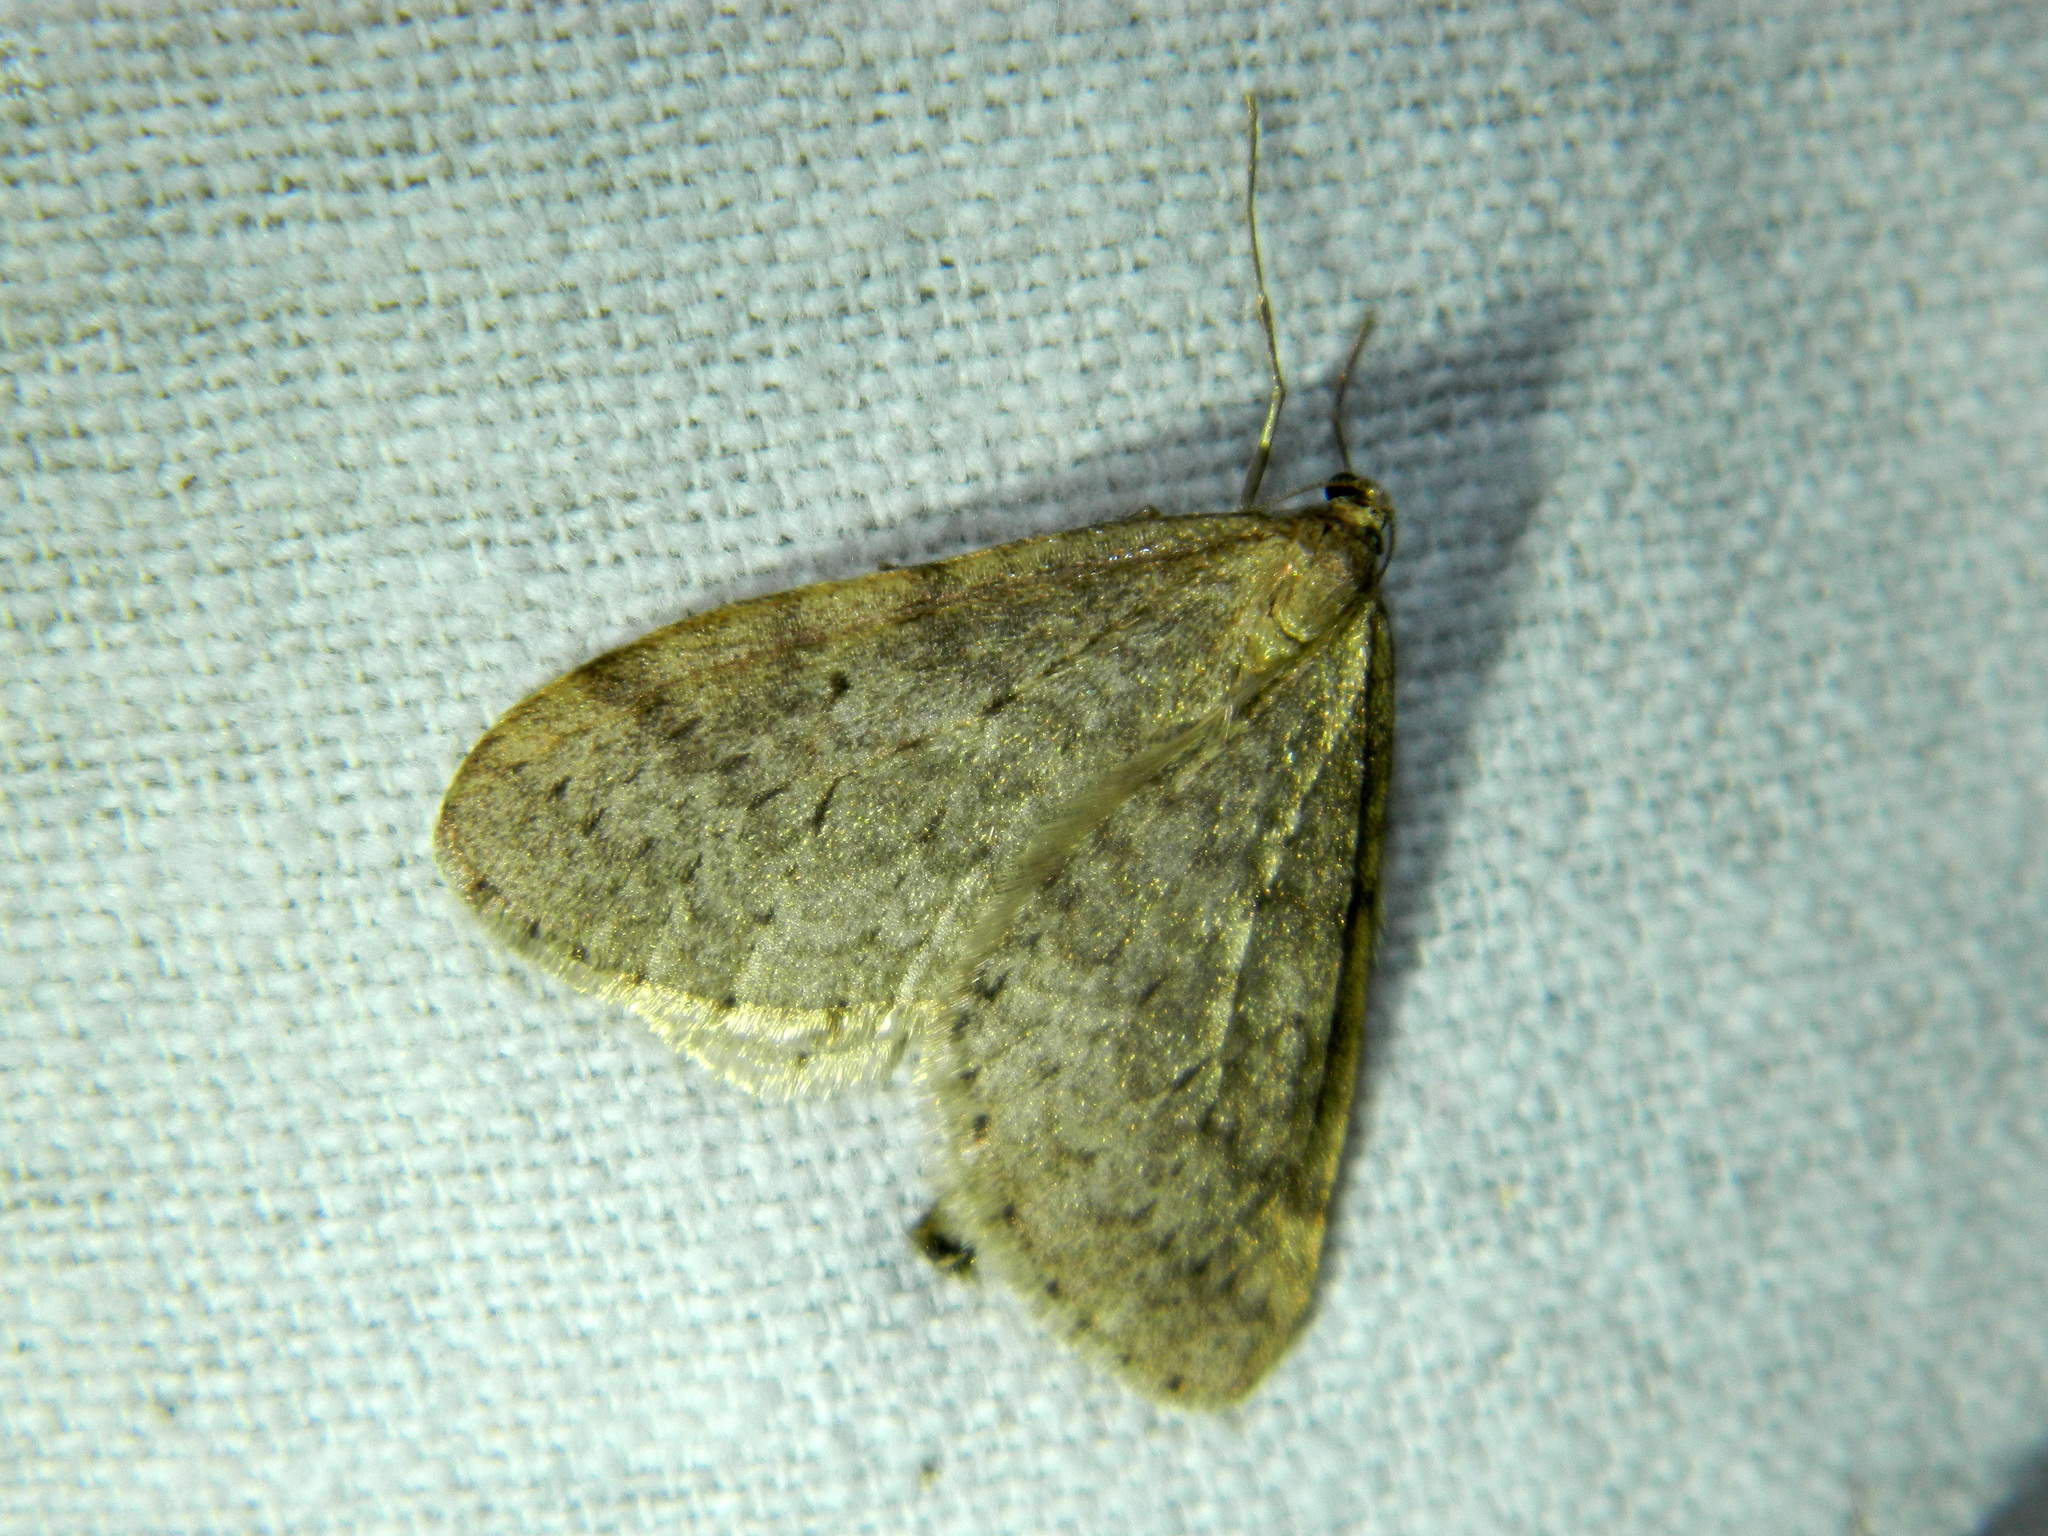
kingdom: Animalia
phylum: Arthropoda
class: Insecta
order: Lepidoptera
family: Geometridae
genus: Operophtera
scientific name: Operophtera bruceata
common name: Bruce spanworm
